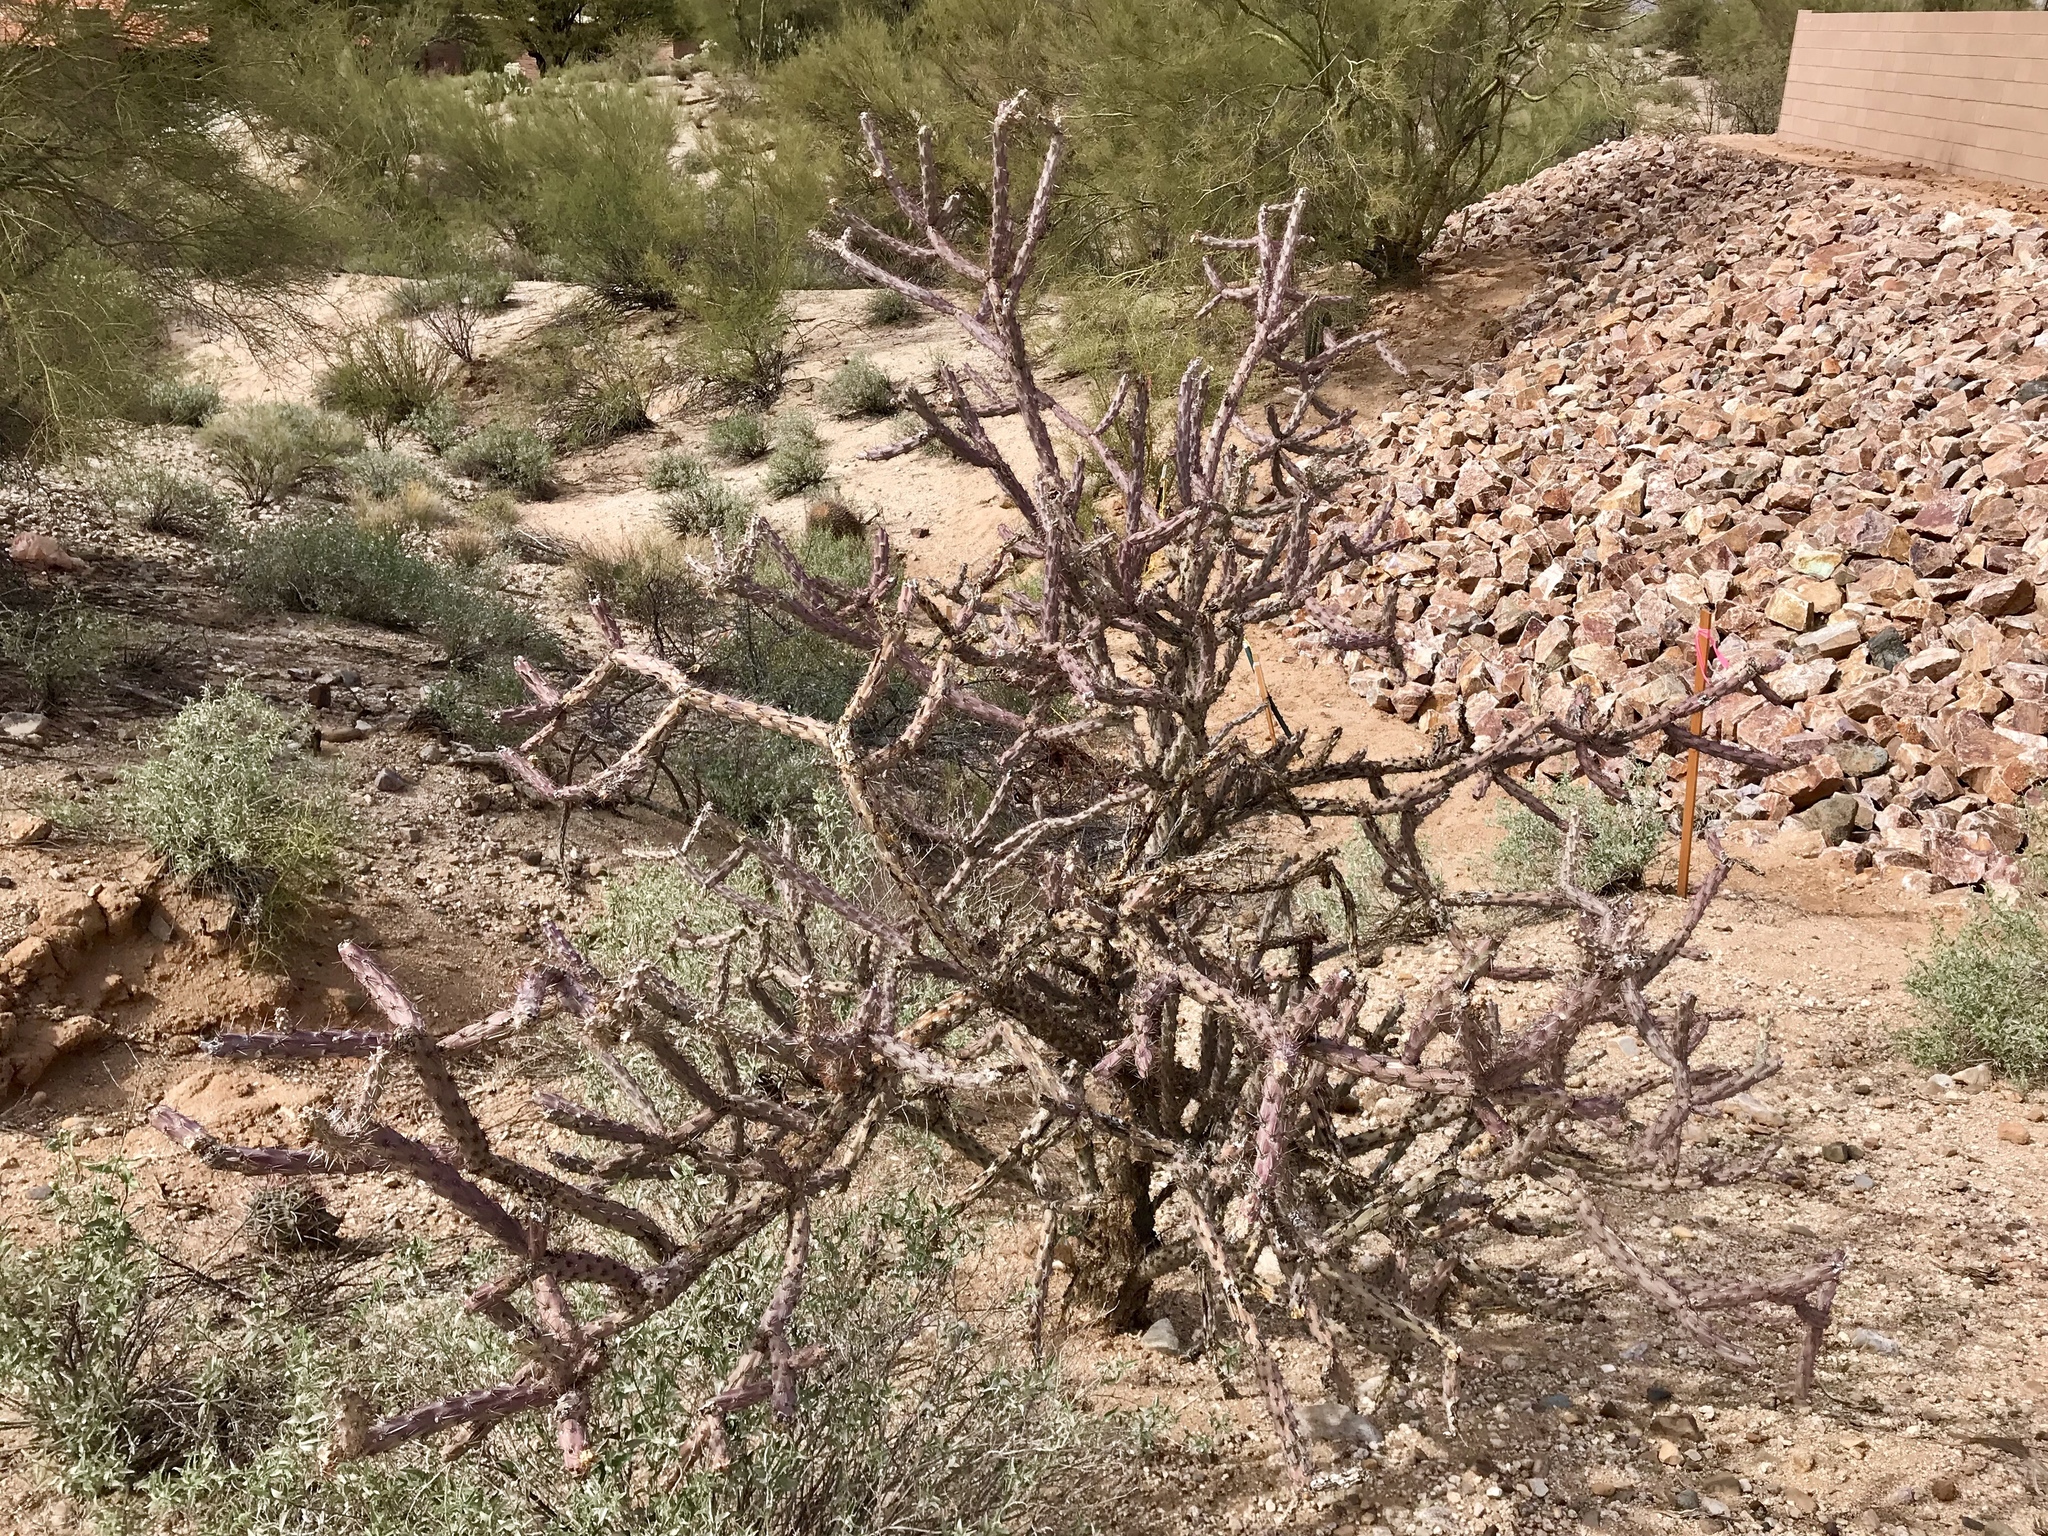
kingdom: Plantae
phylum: Tracheophyta
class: Magnoliopsida
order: Caryophyllales
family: Cactaceae
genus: Cylindropuntia
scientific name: Cylindropuntia thurberi
